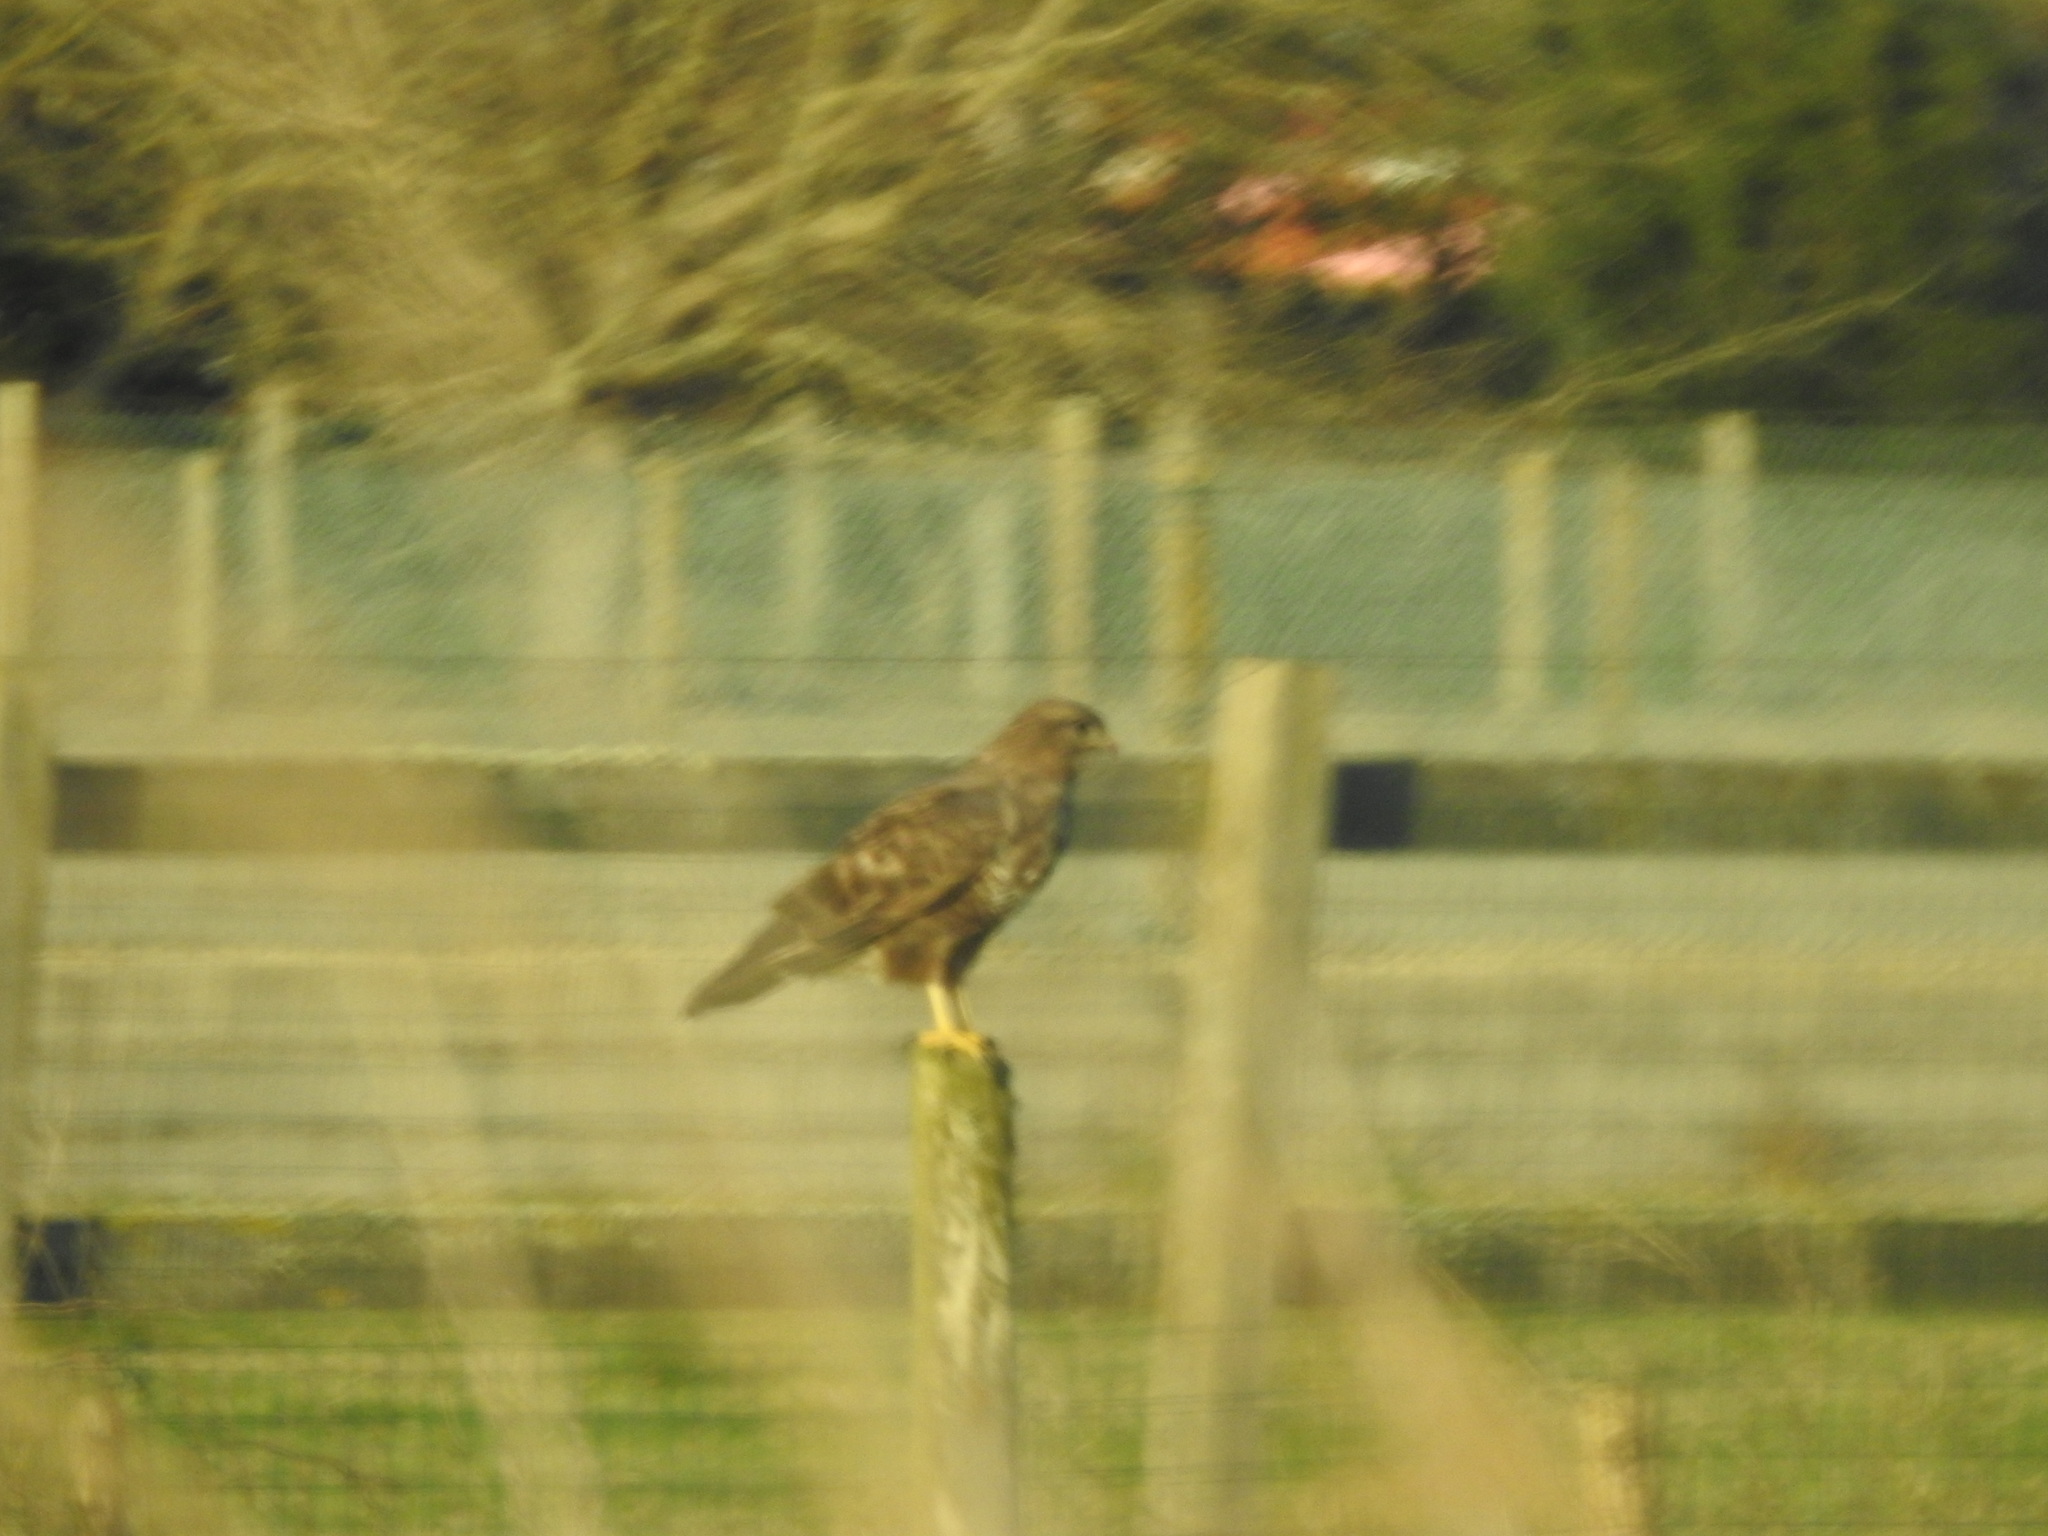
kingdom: Animalia
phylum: Chordata
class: Aves
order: Accipitriformes
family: Accipitridae
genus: Buteo
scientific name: Buteo buteo
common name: Common buzzard
